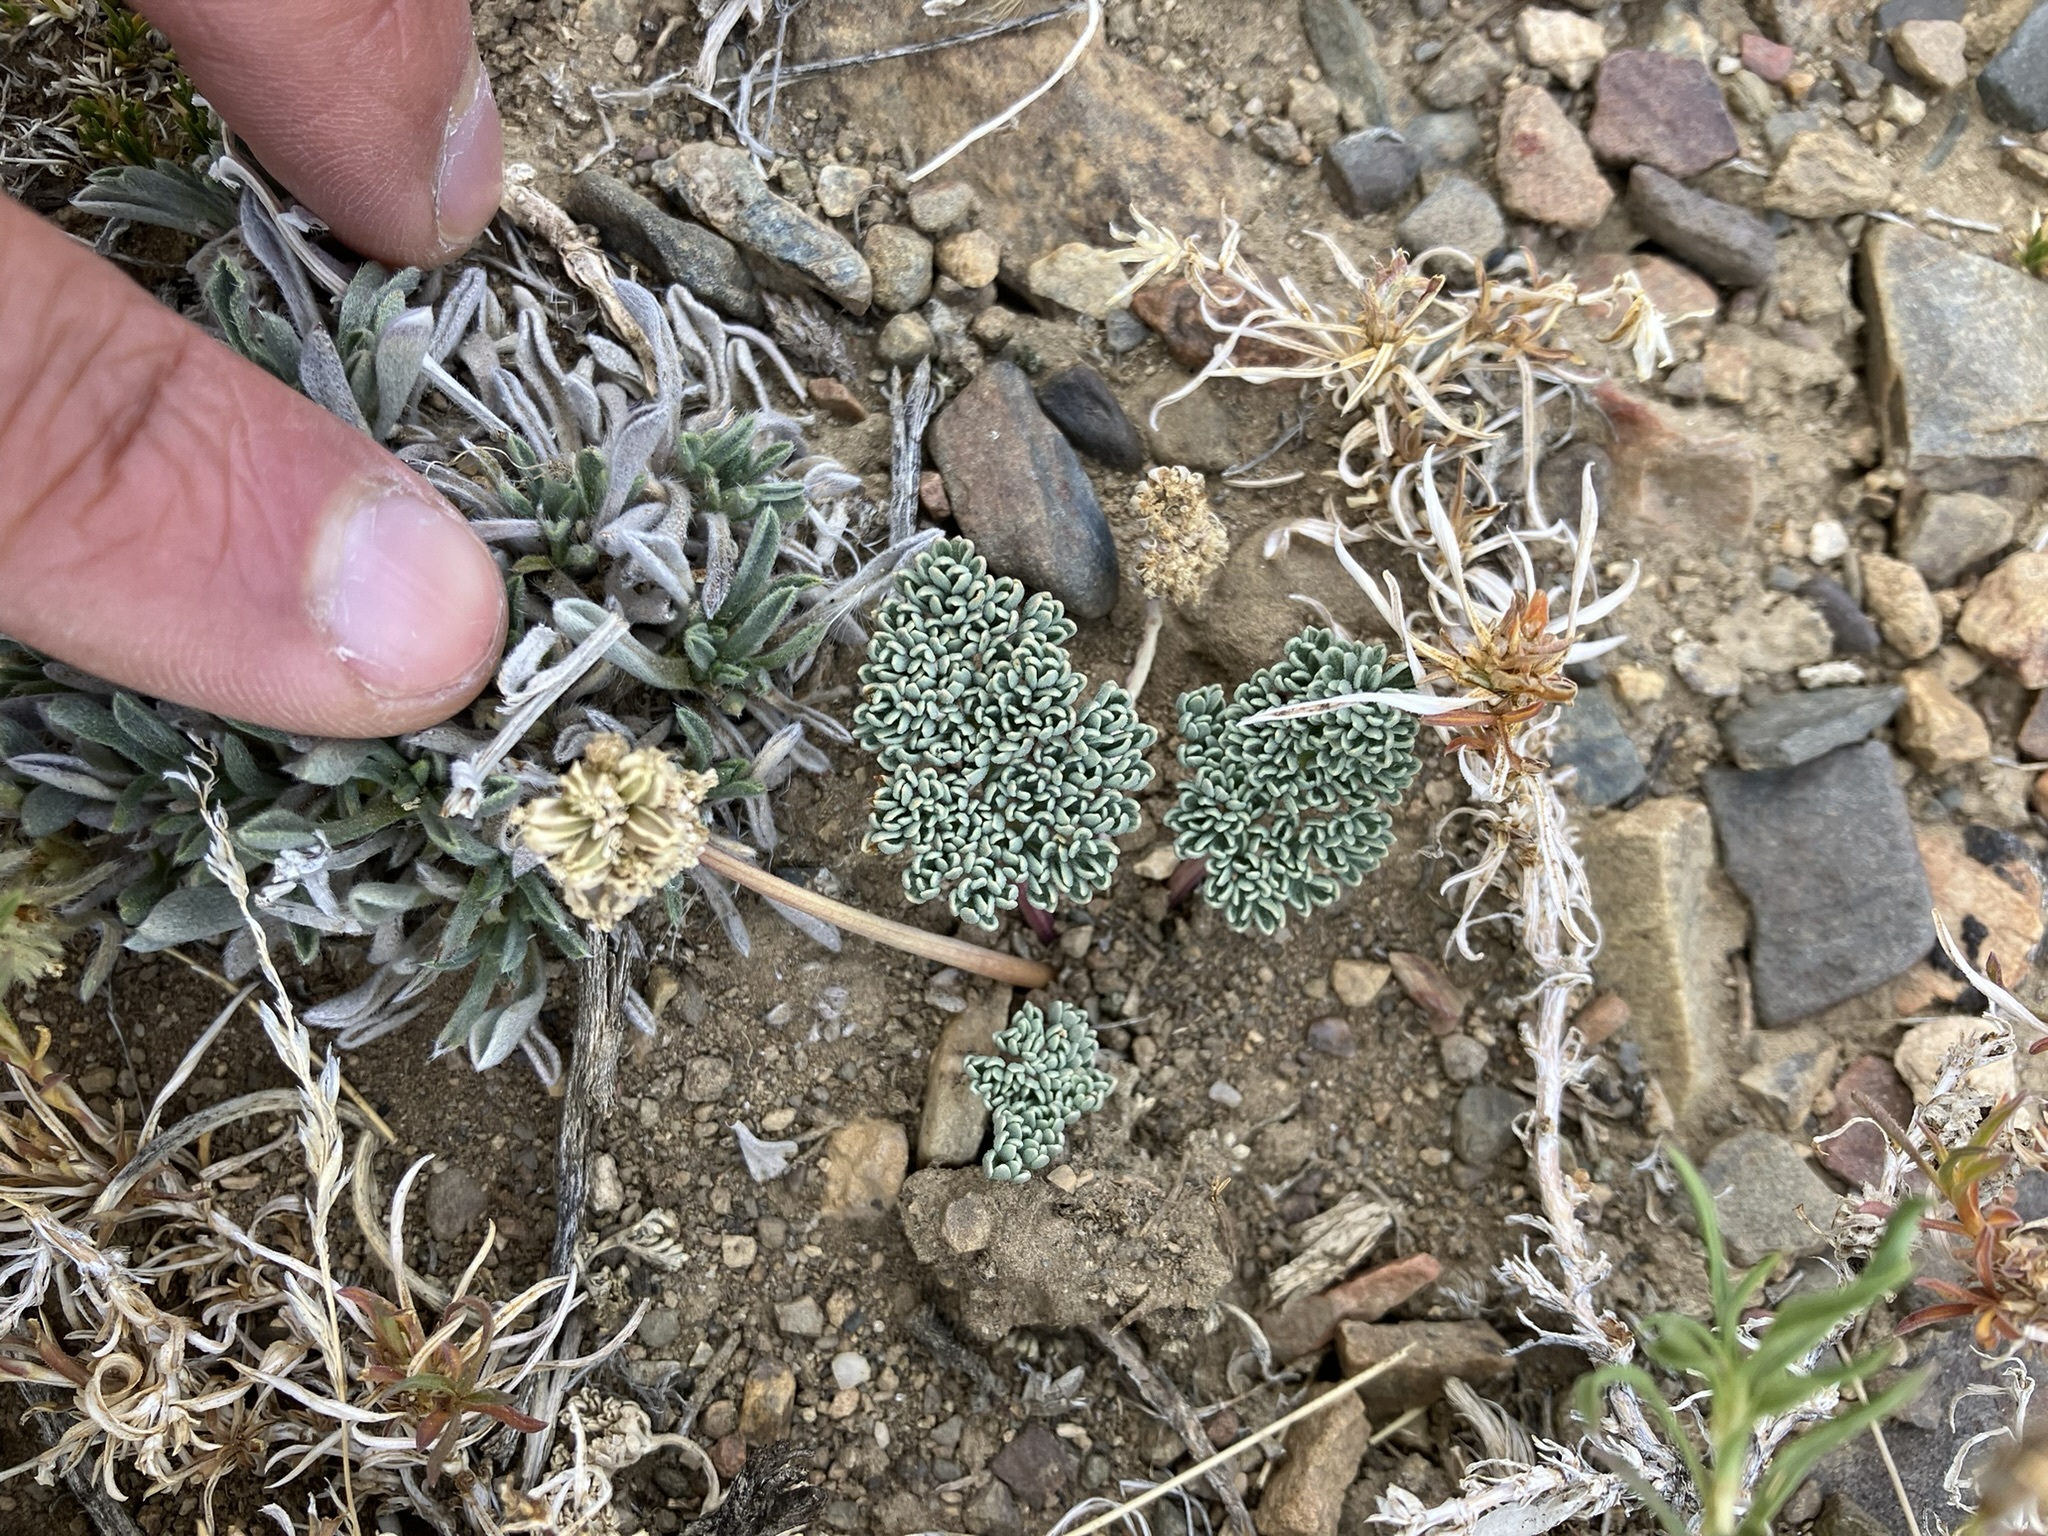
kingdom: Plantae
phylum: Tracheophyta
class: Magnoliopsida
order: Apiales
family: Apiaceae
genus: Aulospermum
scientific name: Aulospermum cinerarium
